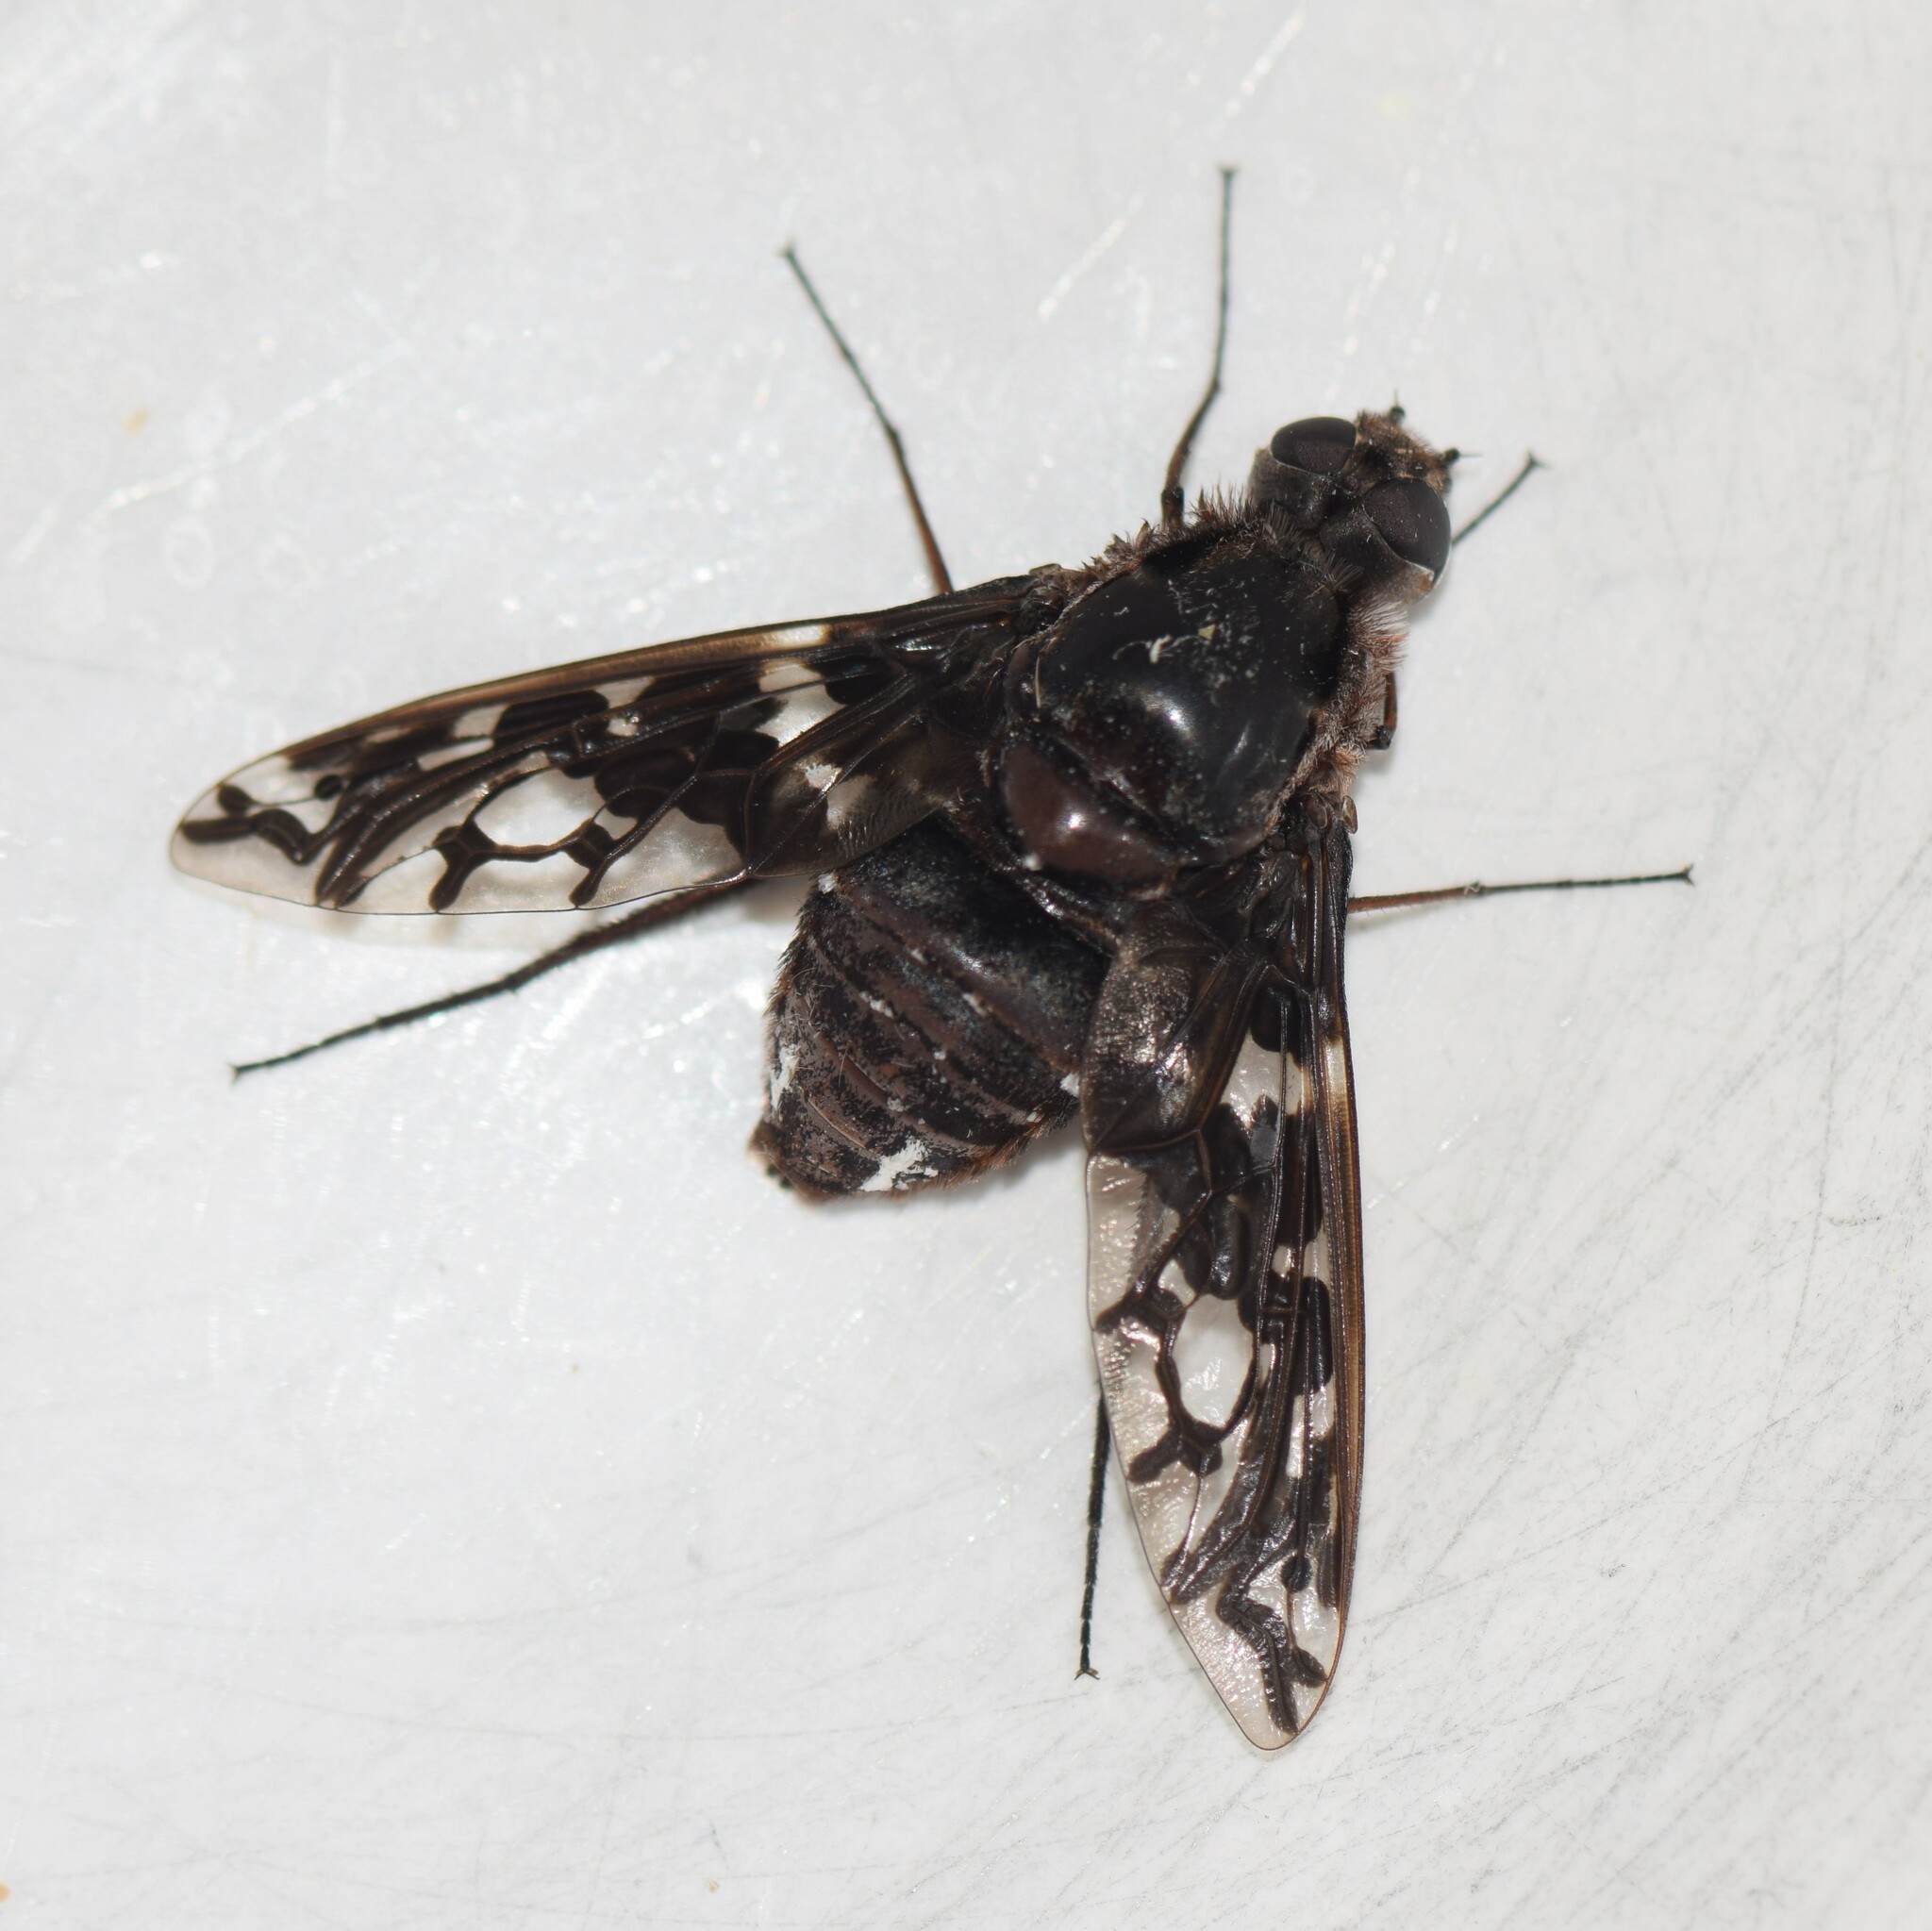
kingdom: Animalia
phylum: Arthropoda
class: Insecta
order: Diptera
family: Bombyliidae
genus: Xenox
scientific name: Xenox tigrinus
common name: Tiger bee fly
